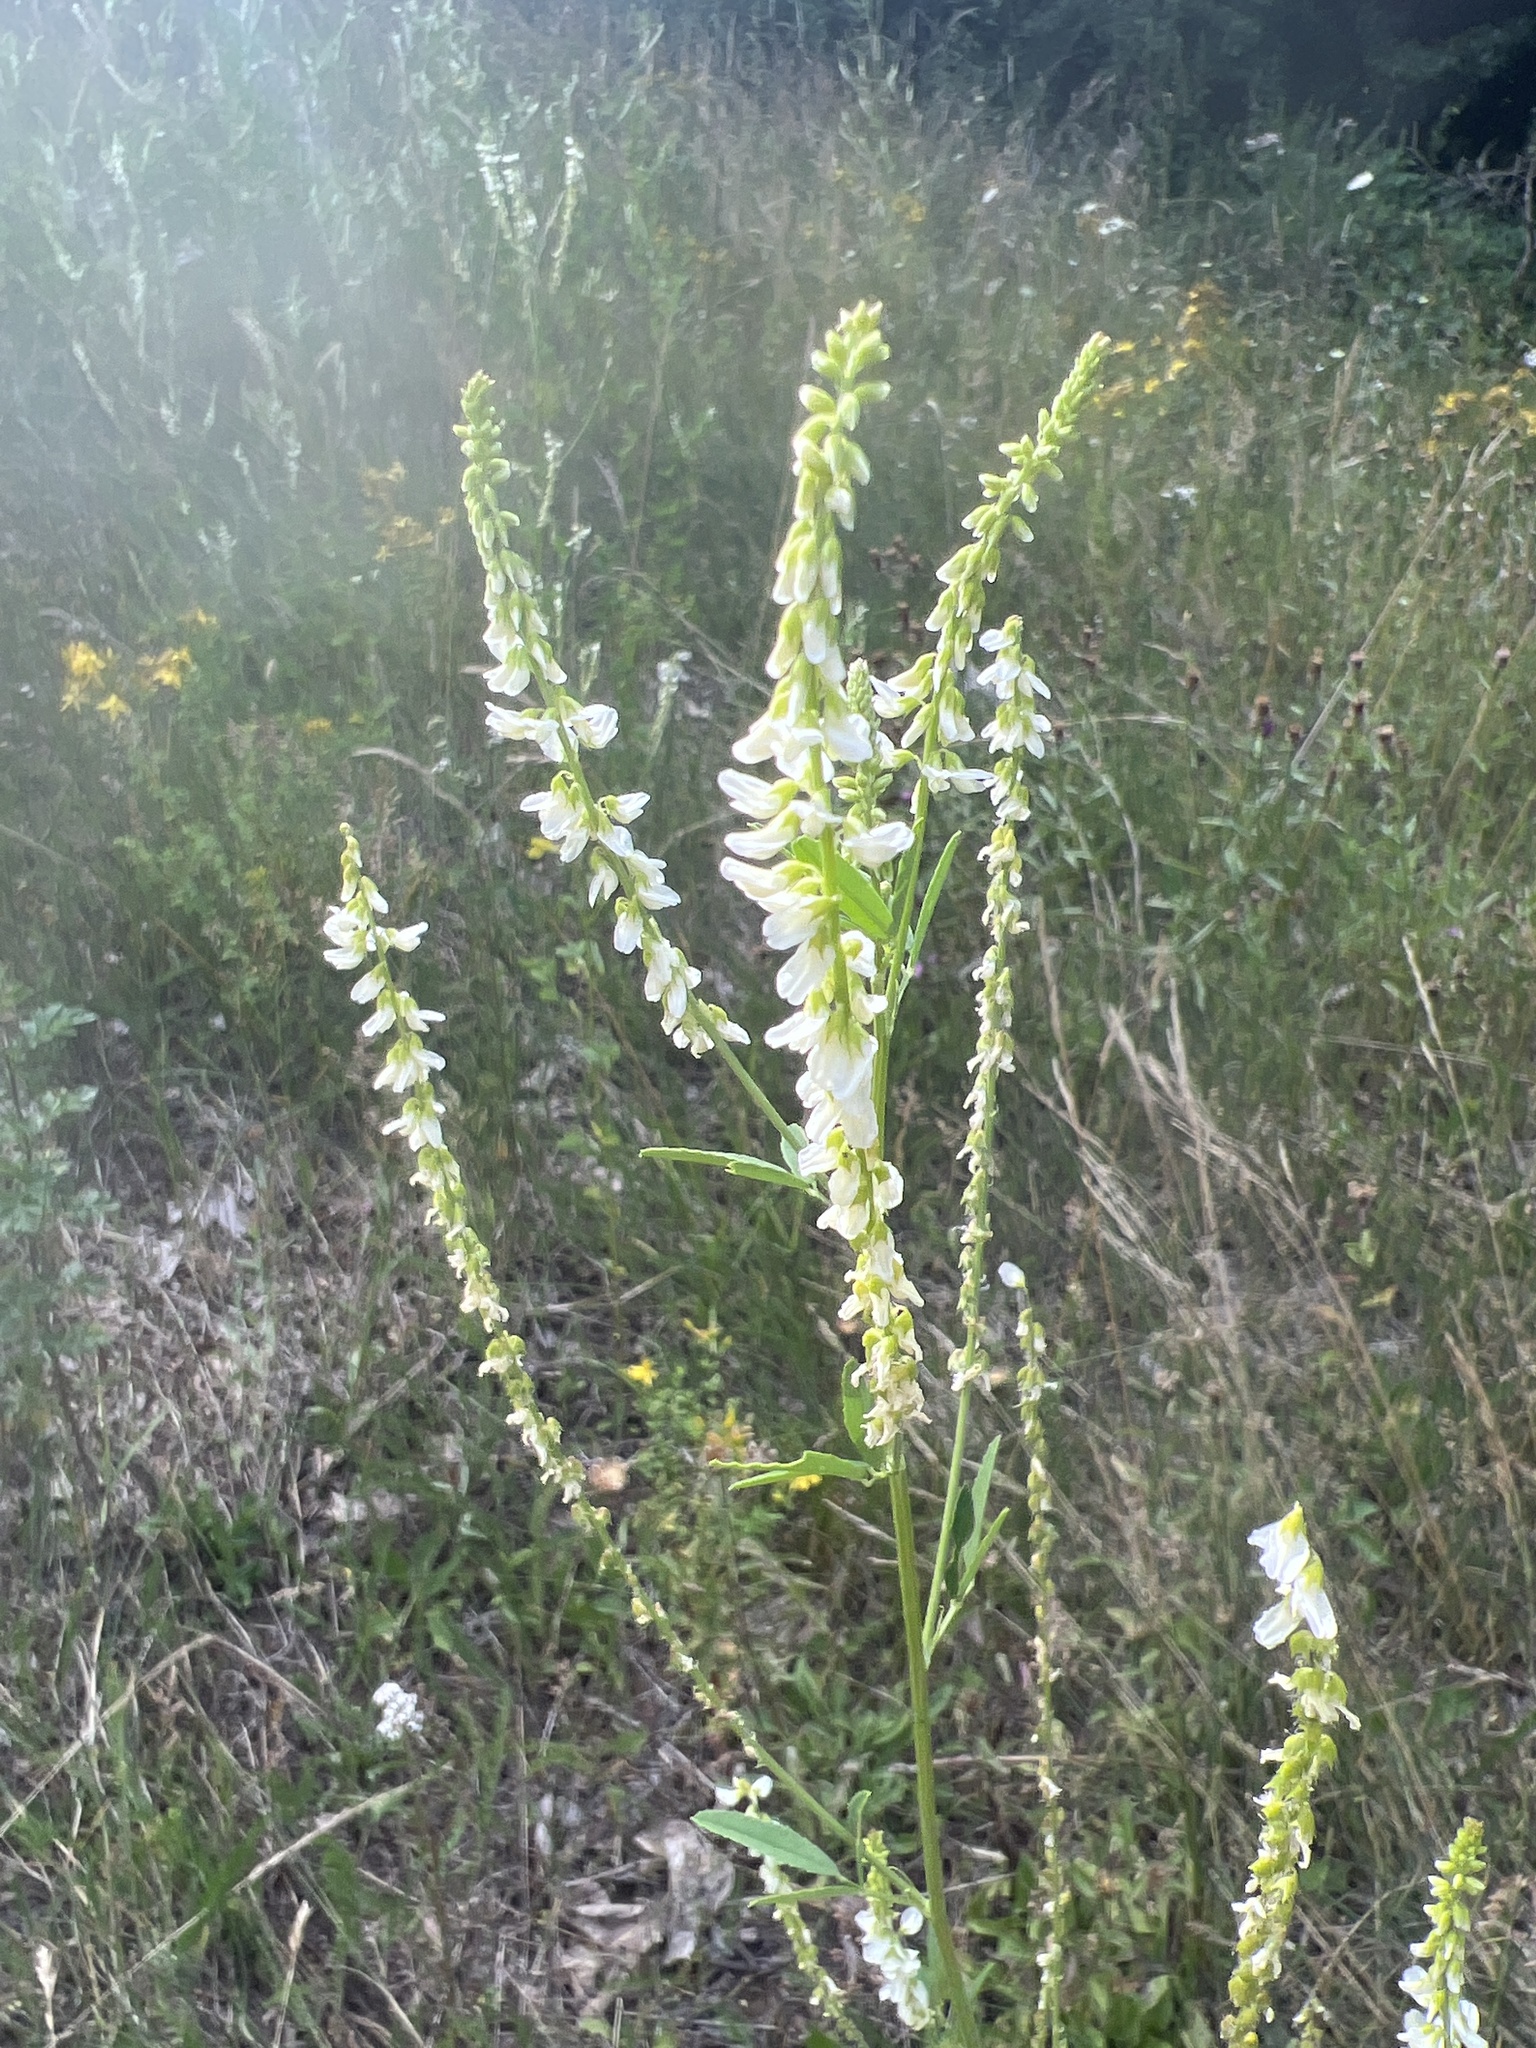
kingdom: Plantae
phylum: Tracheophyta
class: Magnoliopsida
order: Fabales
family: Fabaceae
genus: Melilotus
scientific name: Melilotus albus
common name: White melilot
